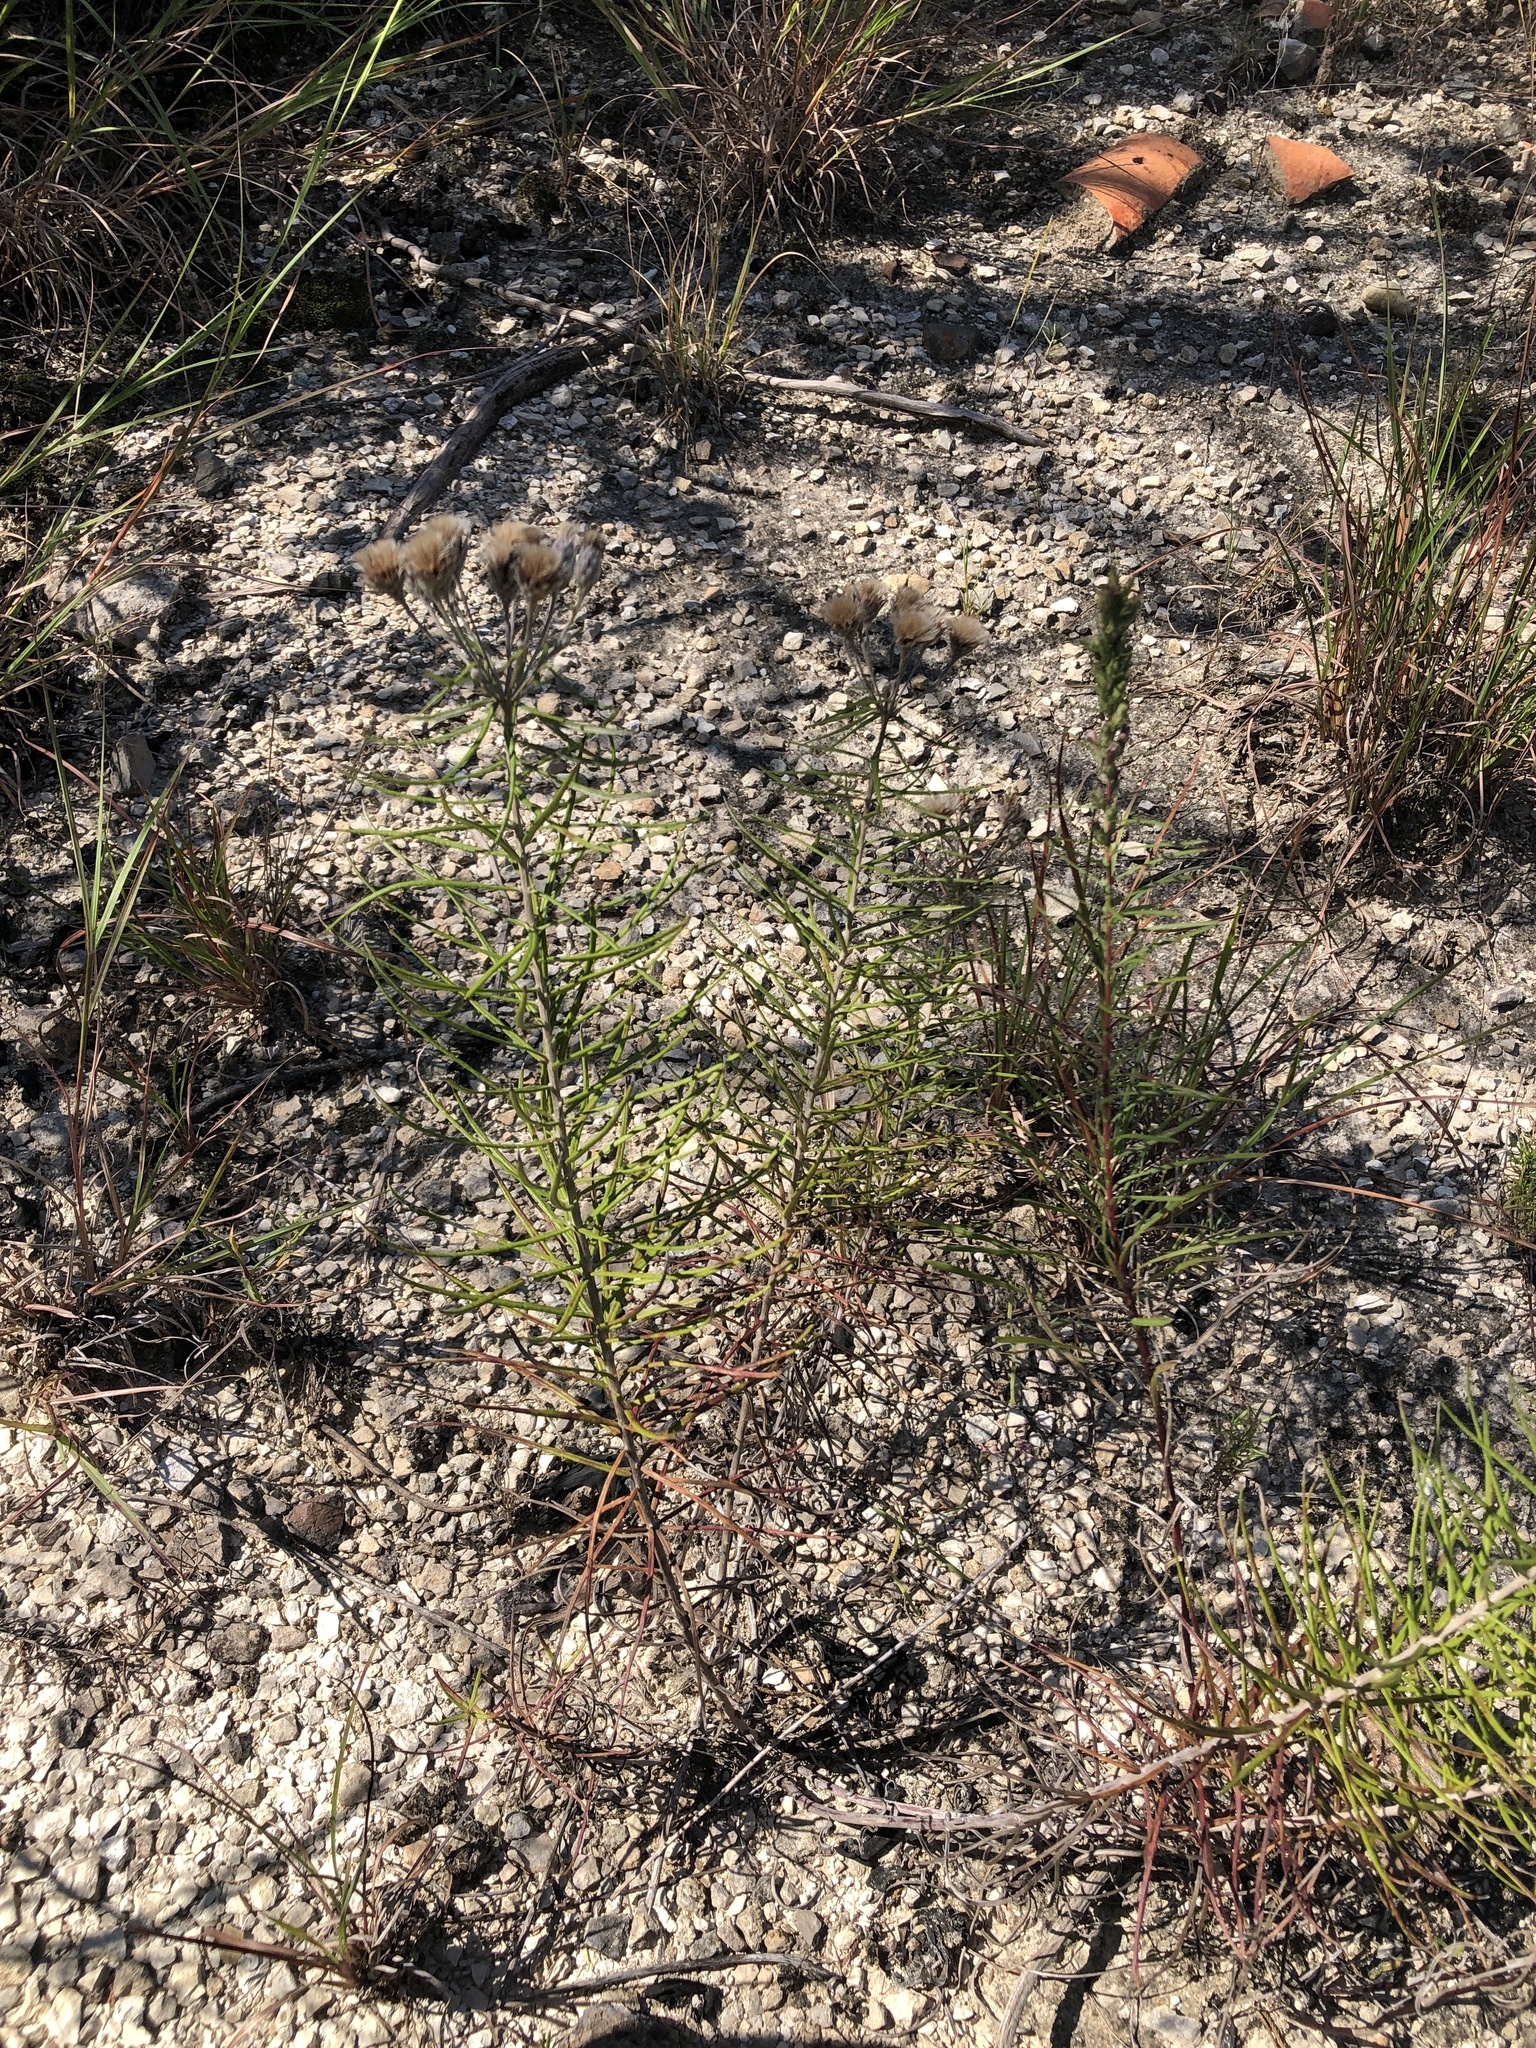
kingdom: Plantae
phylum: Tracheophyta
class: Magnoliopsida
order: Asterales
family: Asteraceae
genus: Vernonia
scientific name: Vernonia lindheimeri
